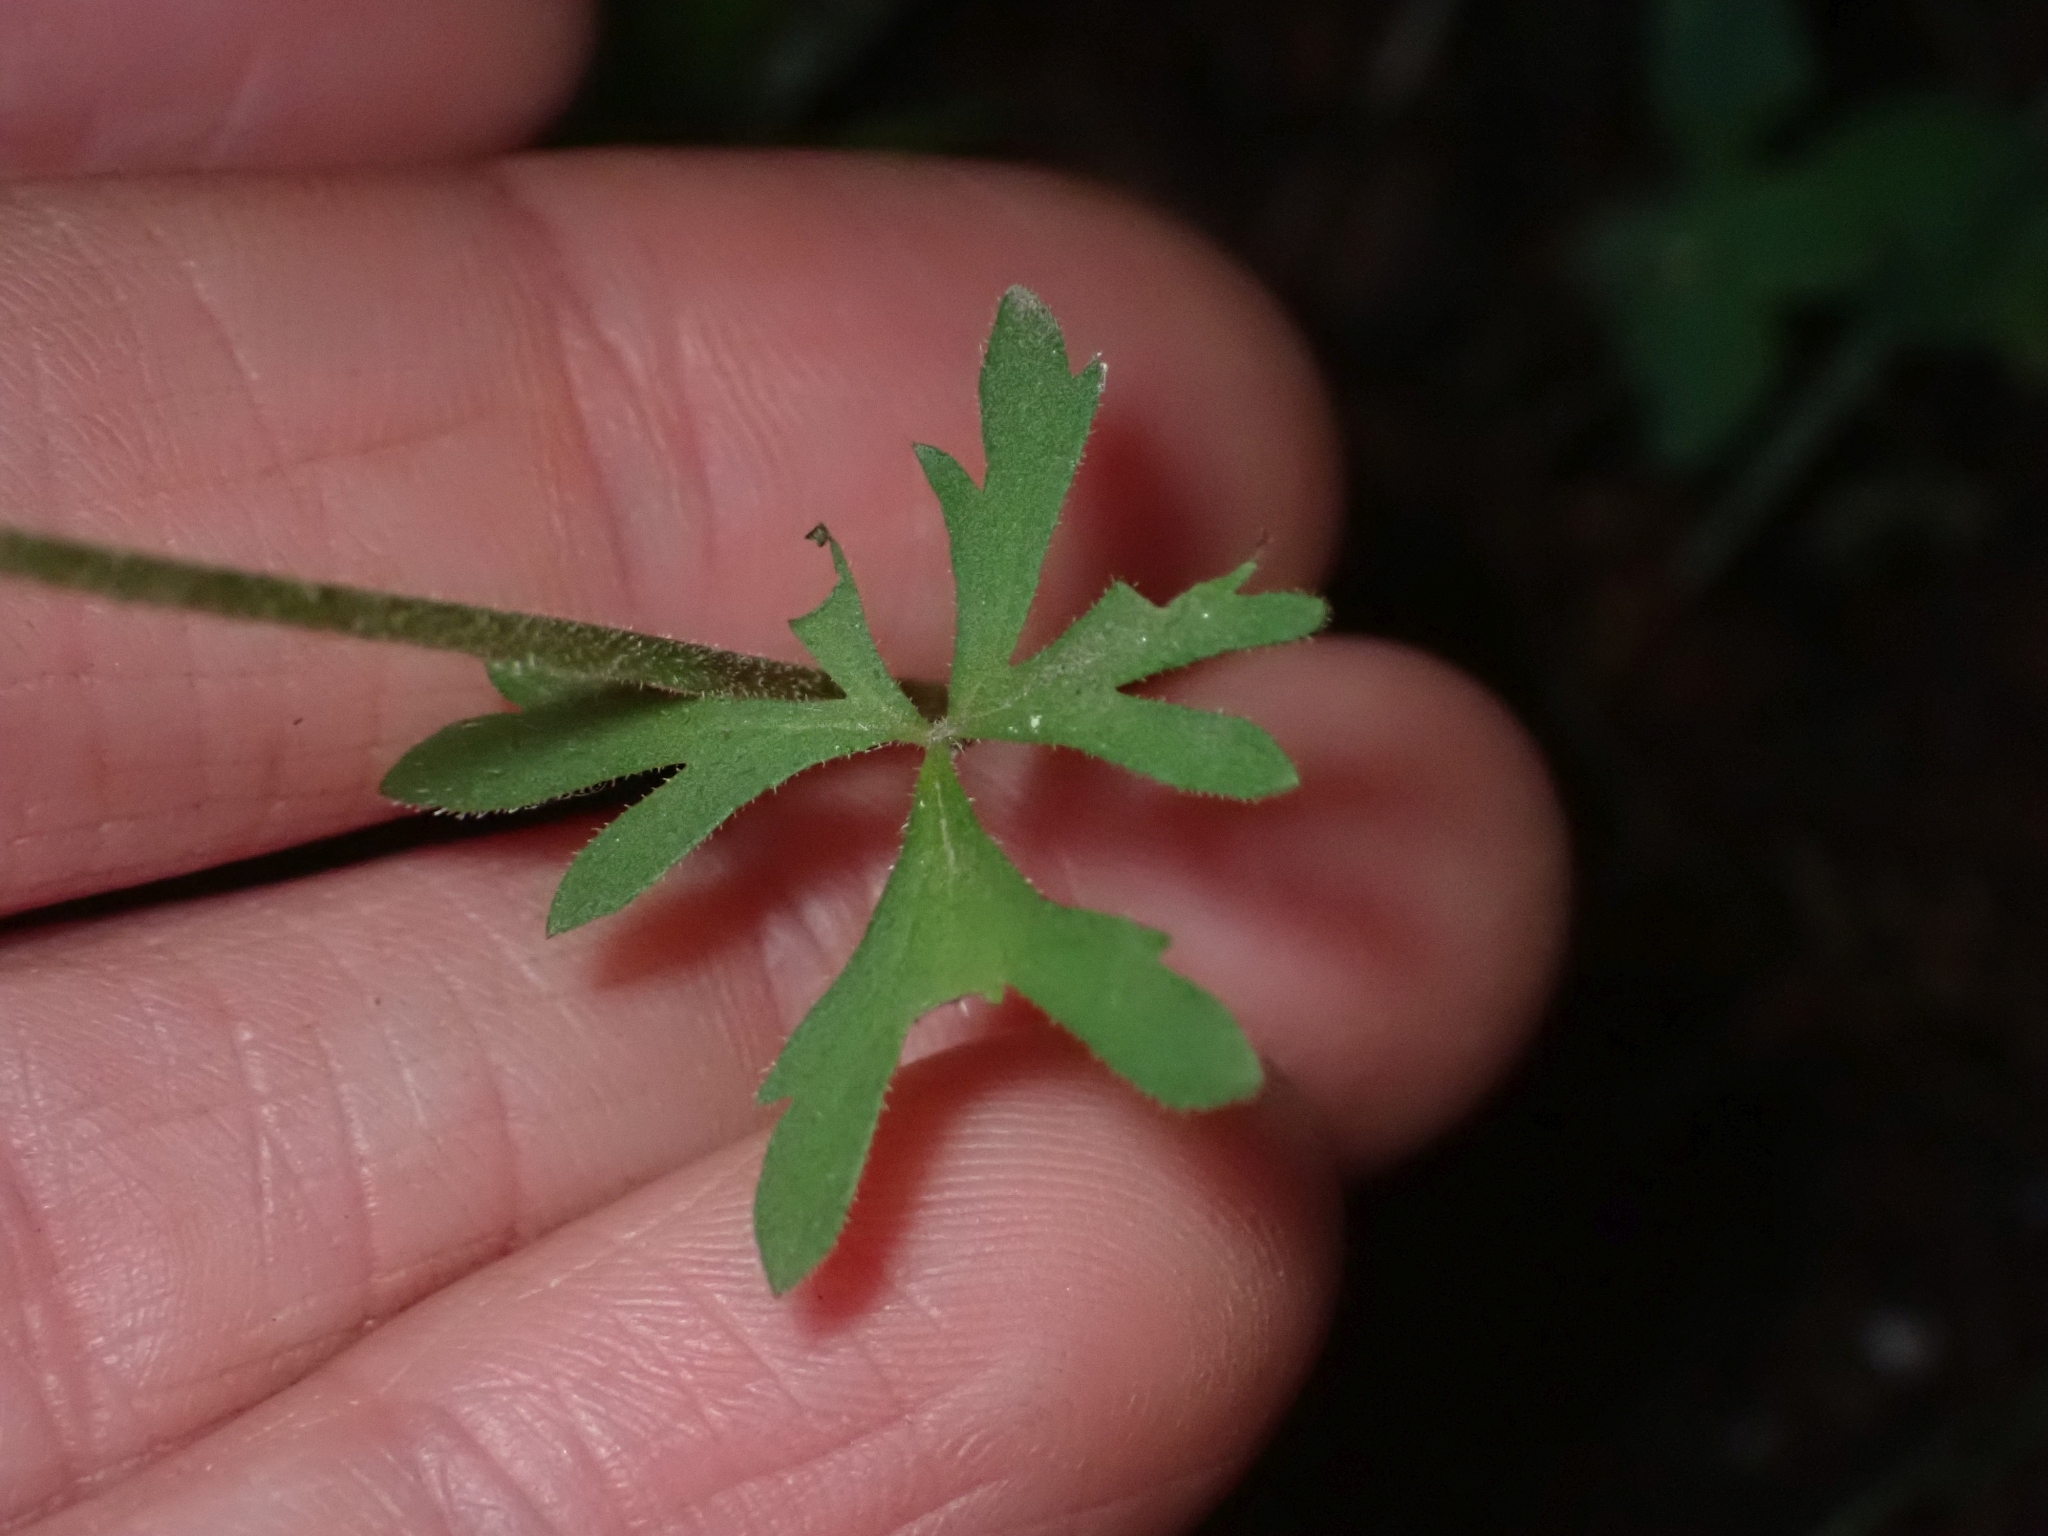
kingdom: Plantae
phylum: Tracheophyta
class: Magnoliopsida
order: Saxifragales
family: Saxifragaceae
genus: Lithophragma
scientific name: Lithophragma parviflorum
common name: Small-flowered fringe-cup
